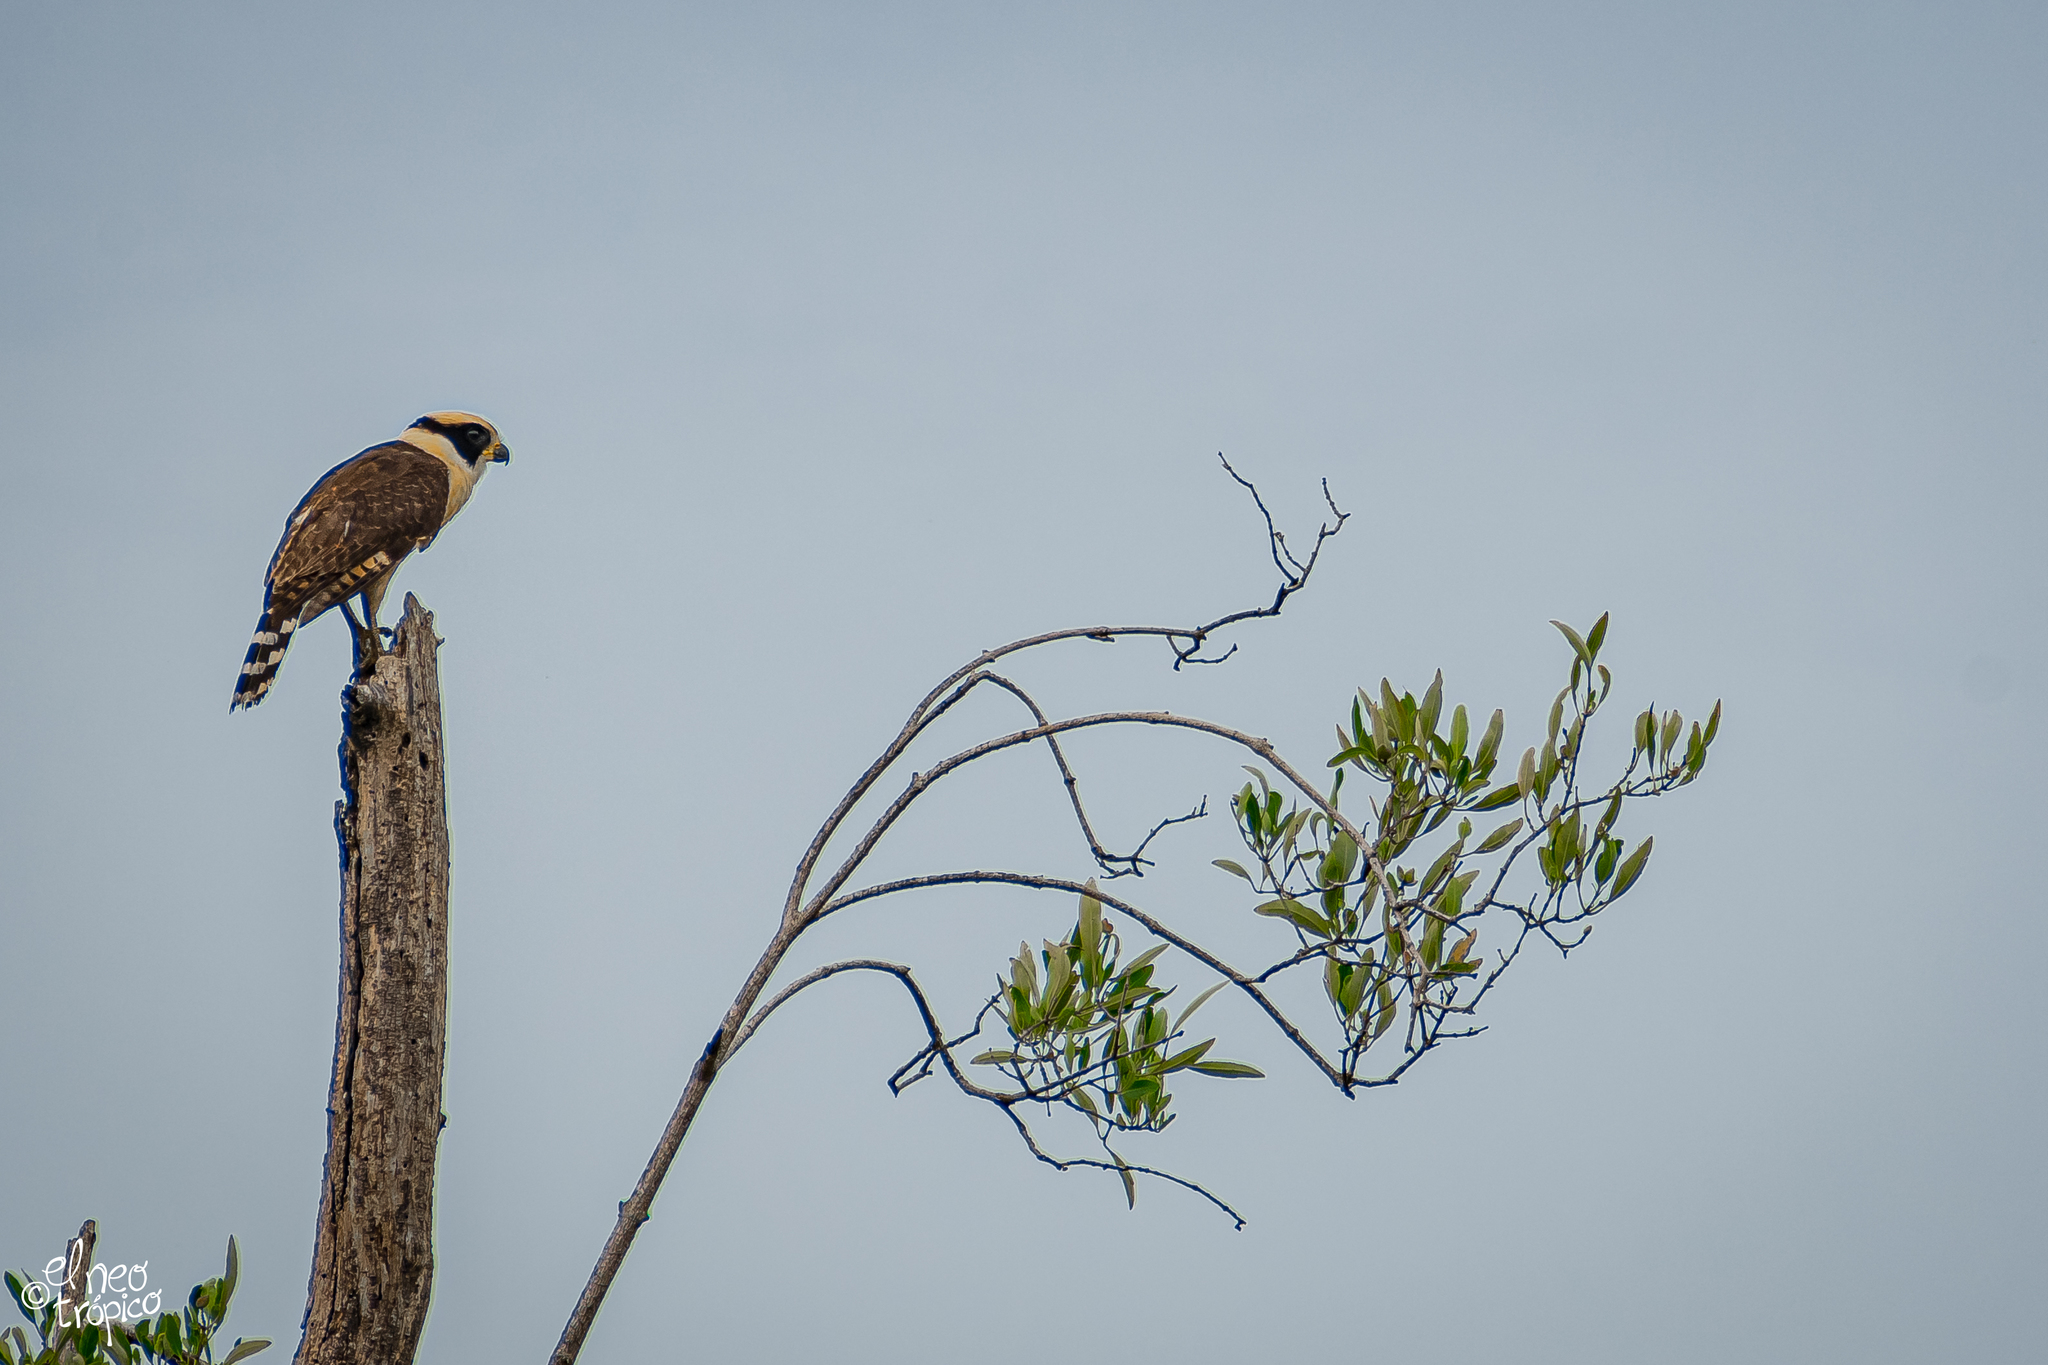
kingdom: Animalia
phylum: Chordata
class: Aves
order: Falconiformes
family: Falconidae
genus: Herpetotheres
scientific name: Herpetotheres cachinnans
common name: Laughing falcon
